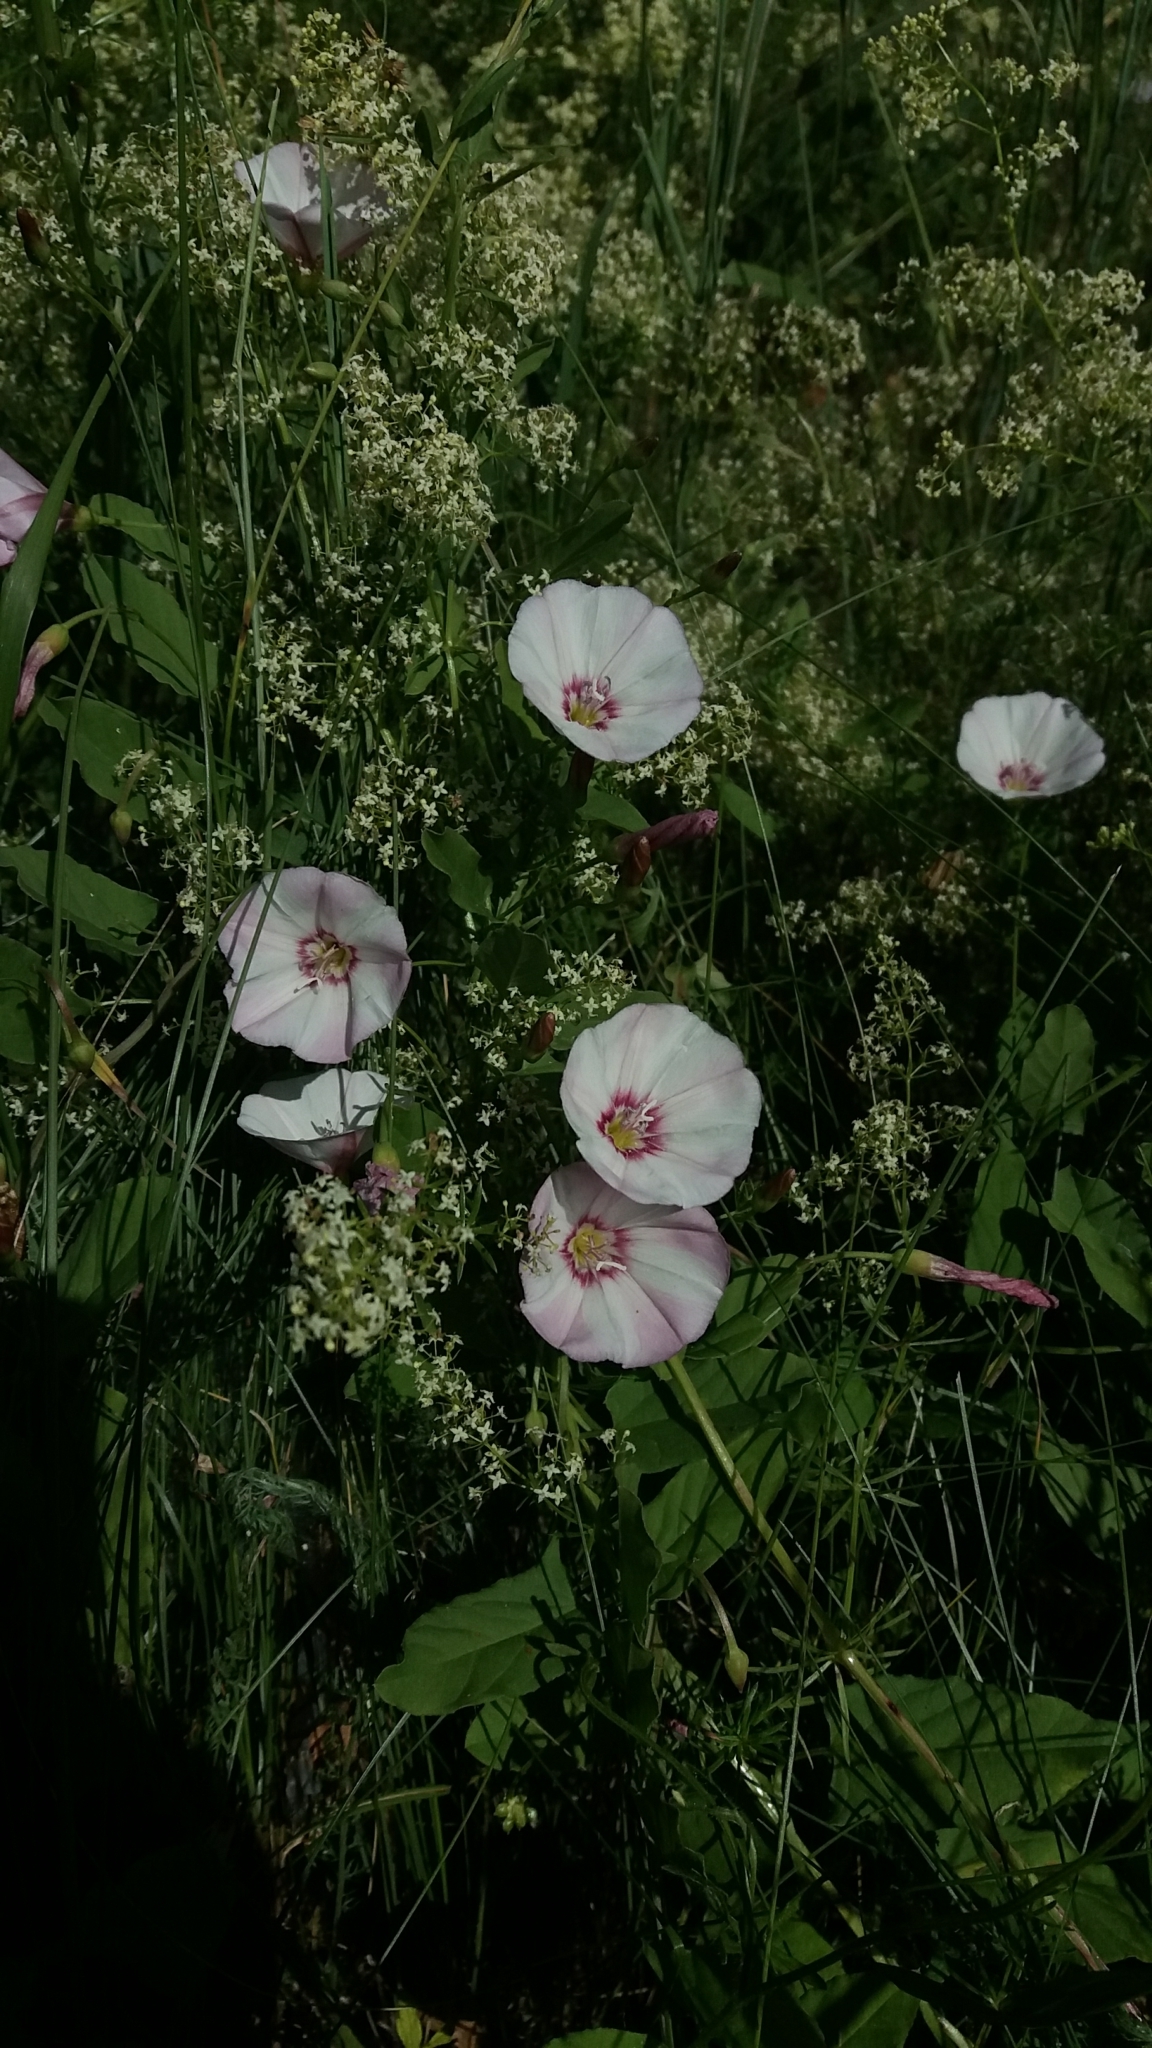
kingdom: Plantae
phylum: Tracheophyta
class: Magnoliopsida
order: Solanales
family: Convolvulaceae
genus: Convolvulus
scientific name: Convolvulus arvensis
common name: Field bindweed
